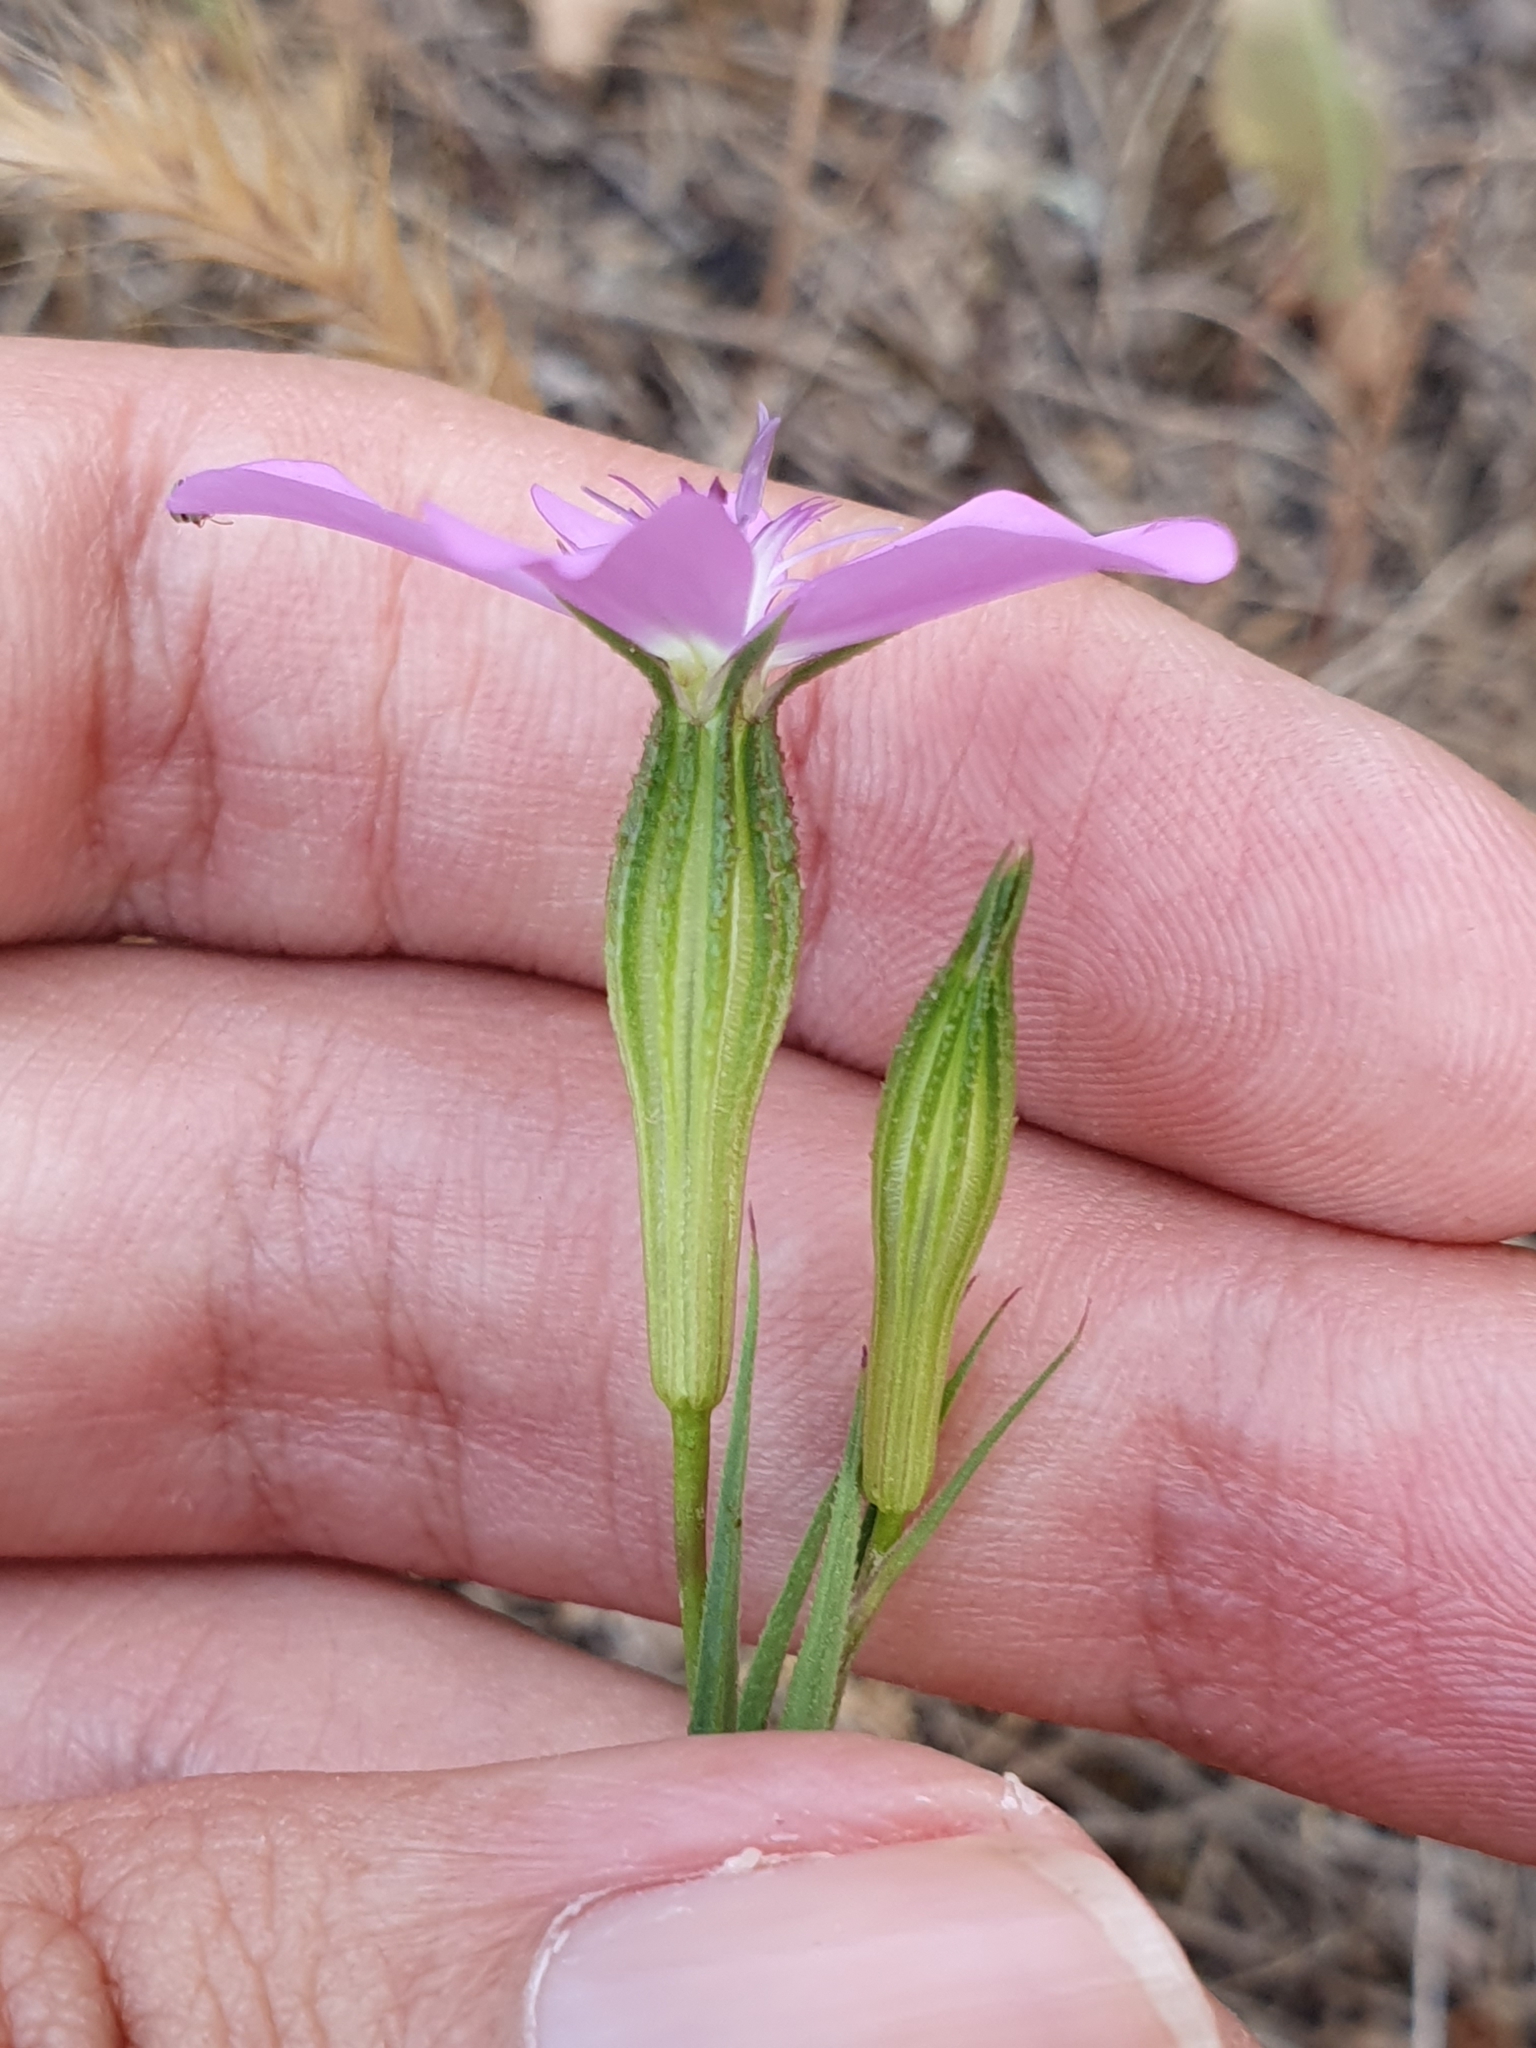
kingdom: Plantae
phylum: Tracheophyta
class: Magnoliopsida
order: Caryophyllales
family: Caryophyllaceae
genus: Eudianthe
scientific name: Eudianthe coeli-rosa
